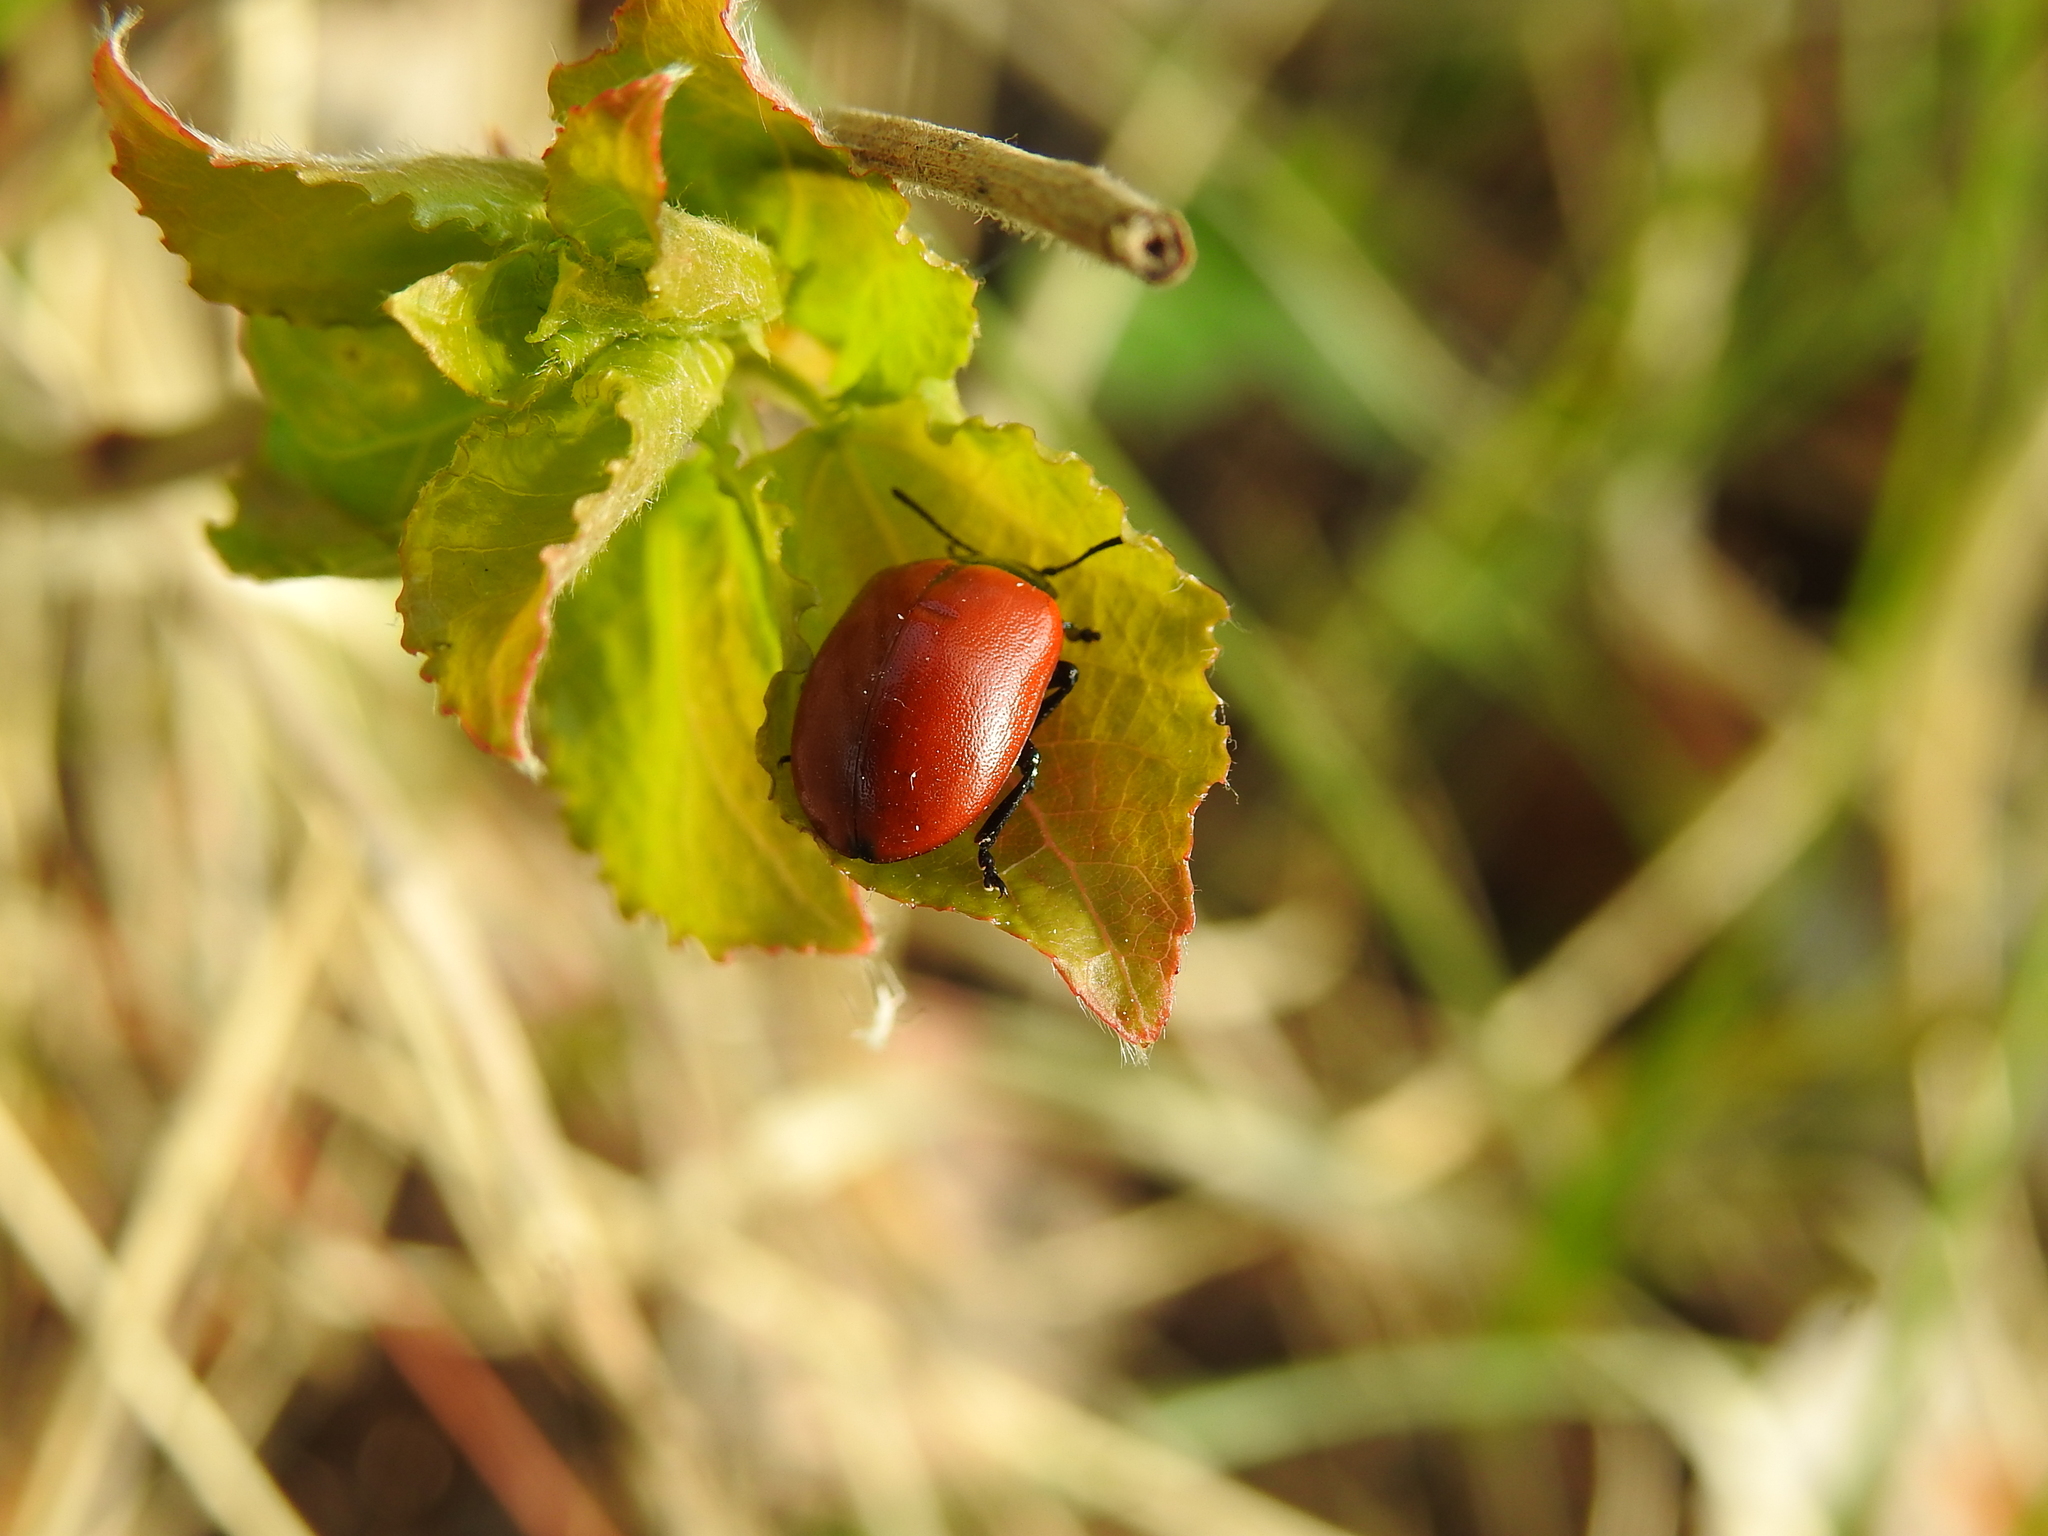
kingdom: Animalia
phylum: Arthropoda
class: Insecta
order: Coleoptera
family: Chrysomelidae
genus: Chrysomela
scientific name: Chrysomela populi
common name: Red poplar leaf beetle
